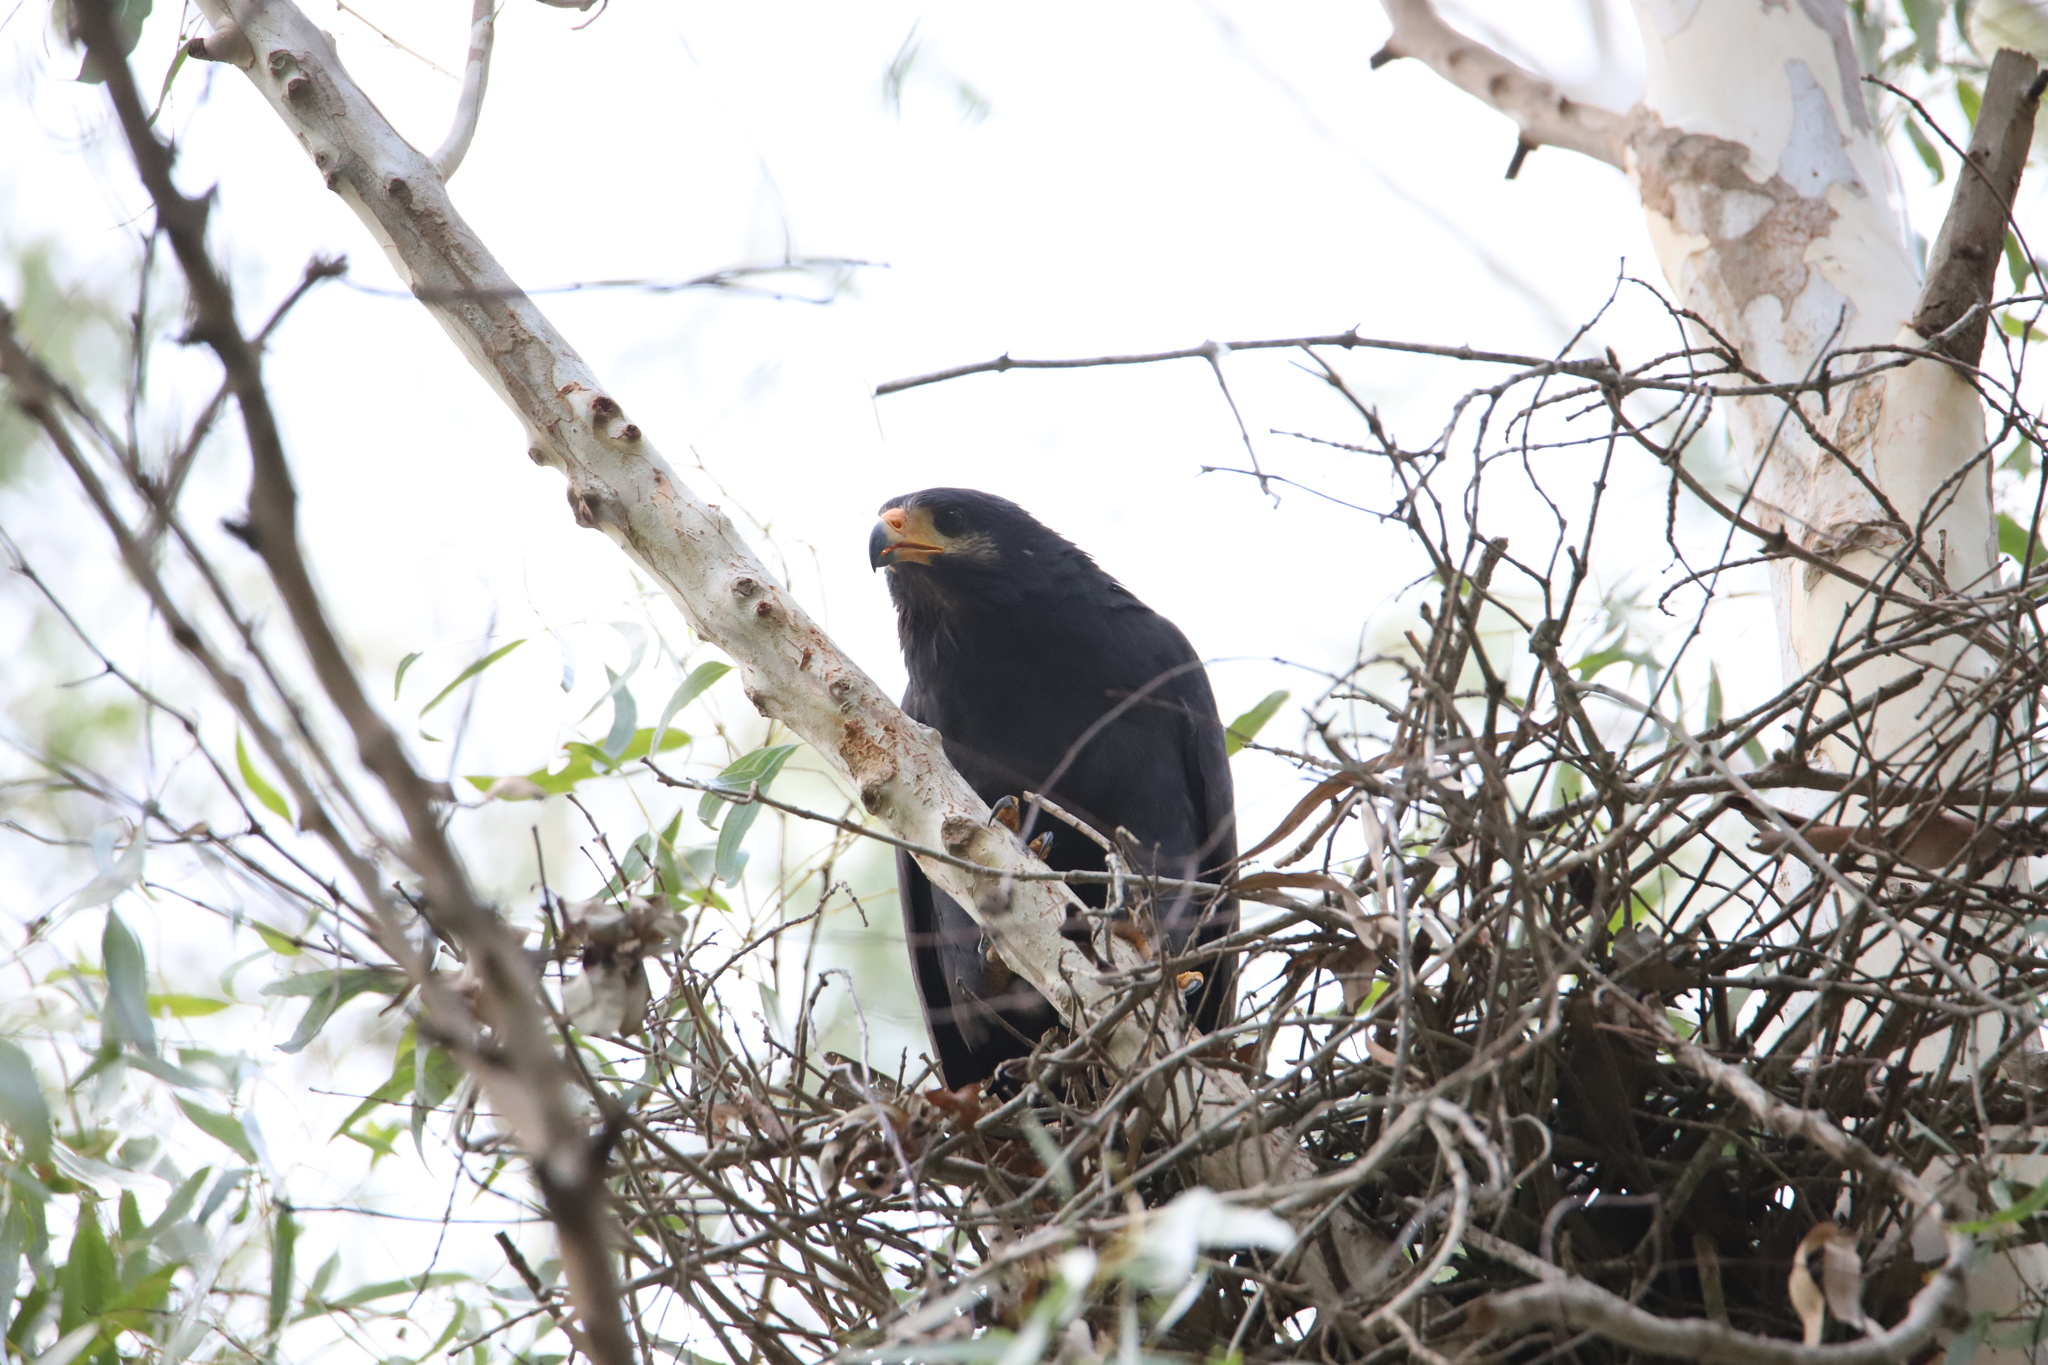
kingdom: Animalia
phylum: Chordata
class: Aves
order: Accipitriformes
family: Accipitridae
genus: Buteogallus
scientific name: Buteogallus anthracinus
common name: Common black hawk
